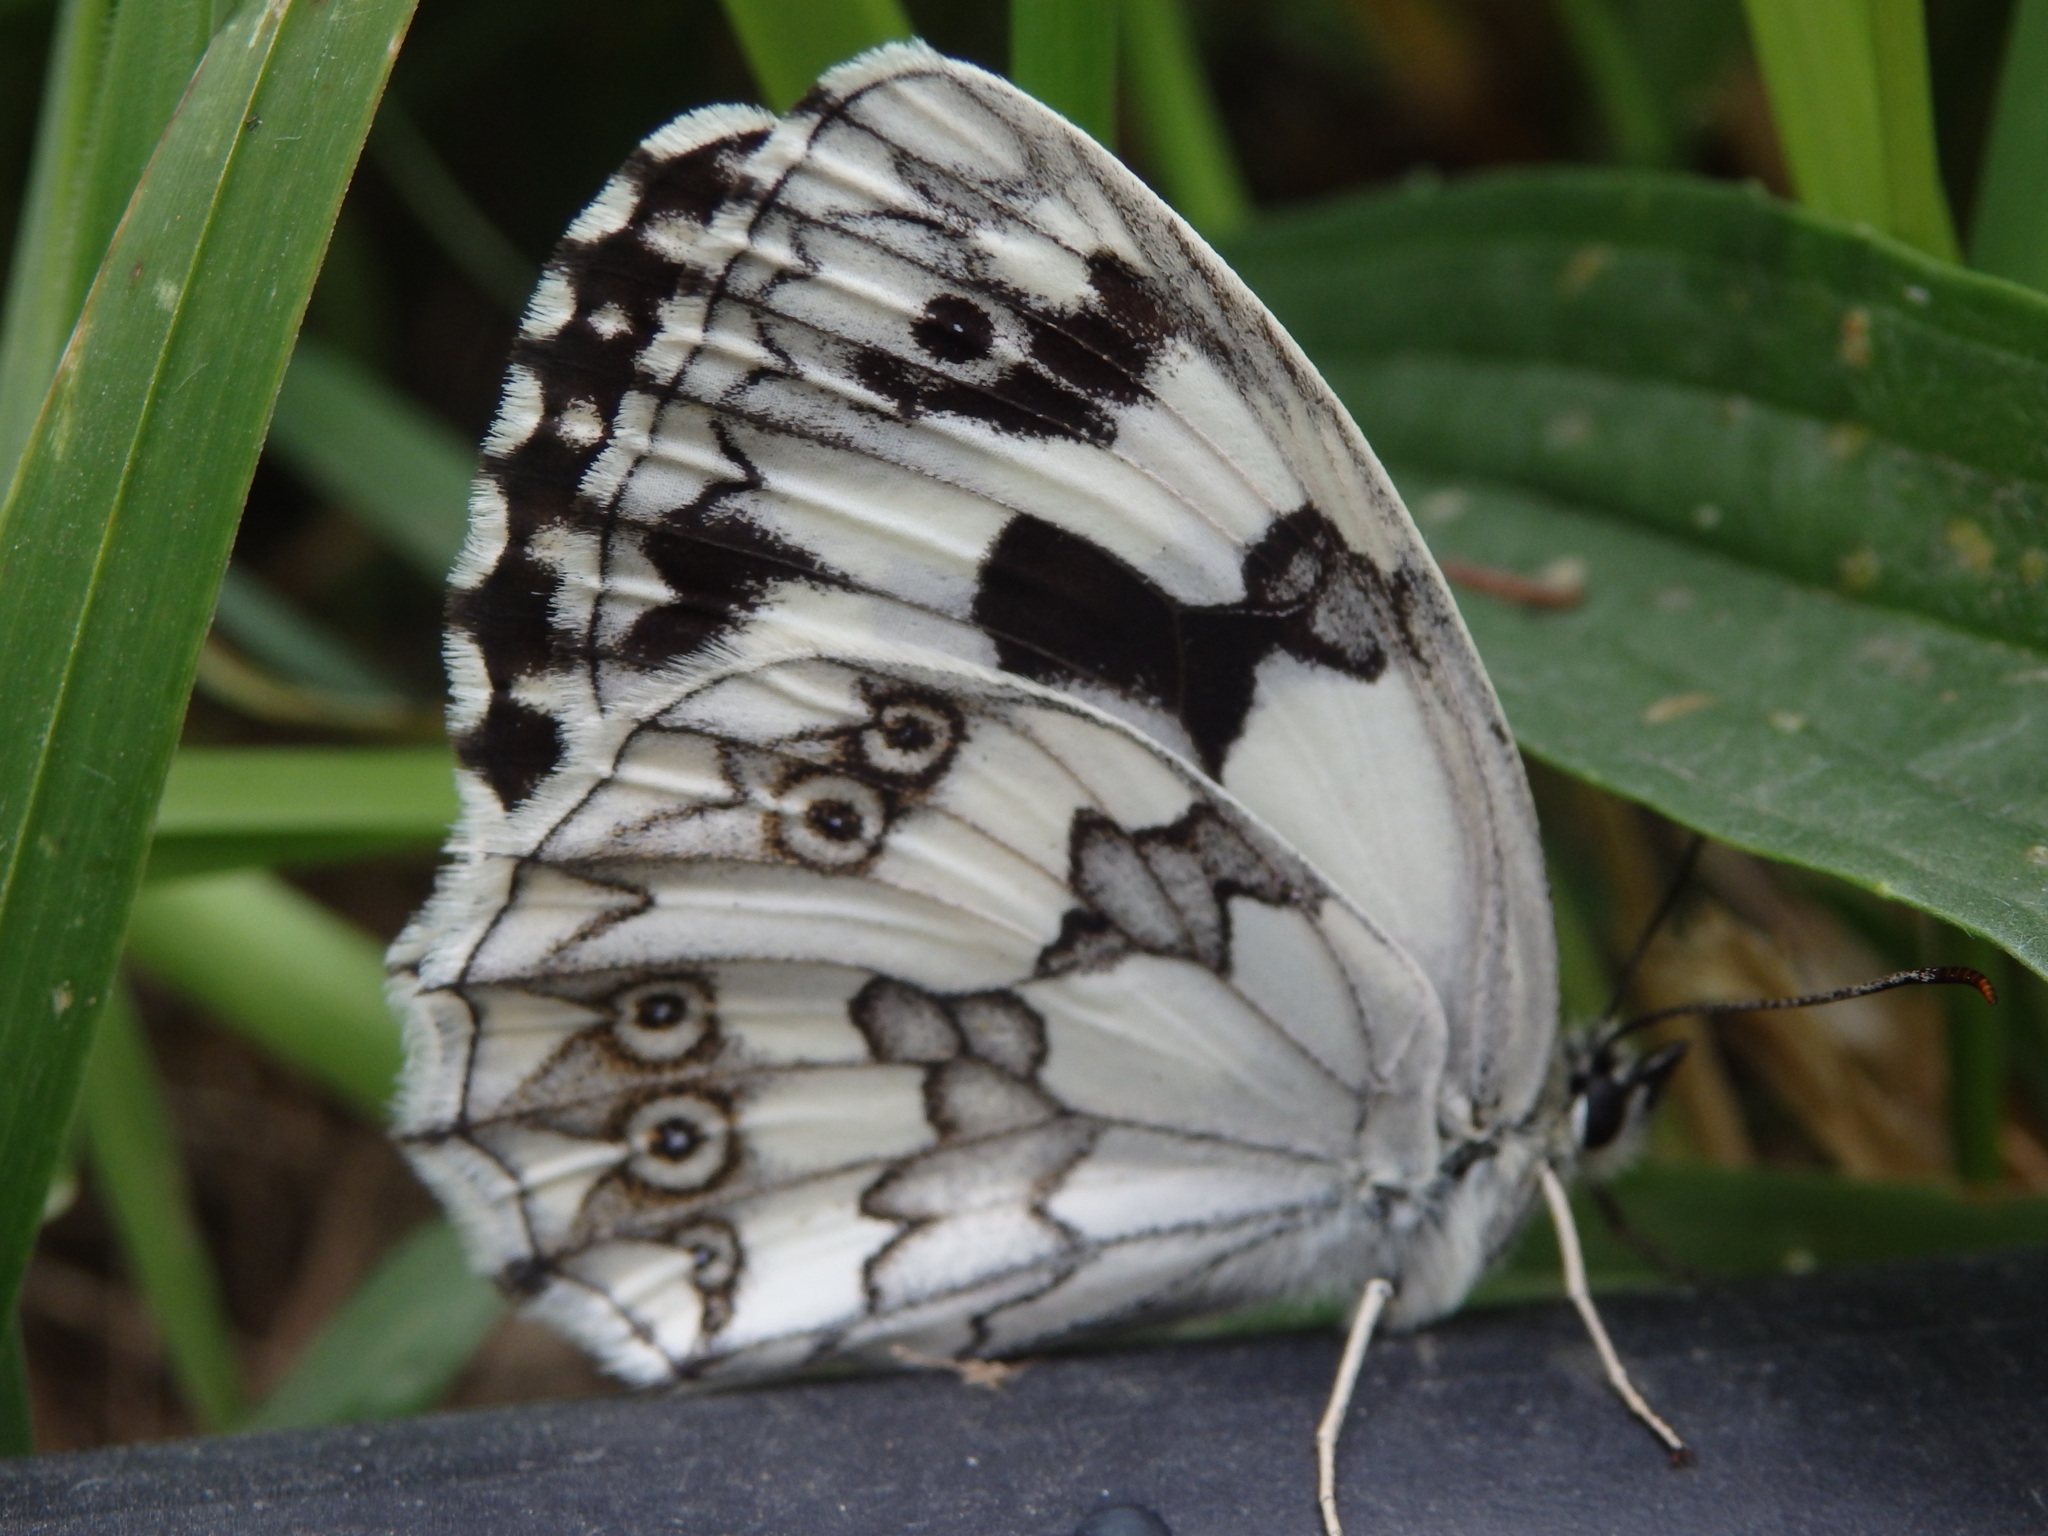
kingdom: Animalia
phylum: Arthropoda
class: Insecta
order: Lepidoptera
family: Nymphalidae
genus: Melanargia
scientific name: Melanargia lachesis
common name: Iberian marbled white
